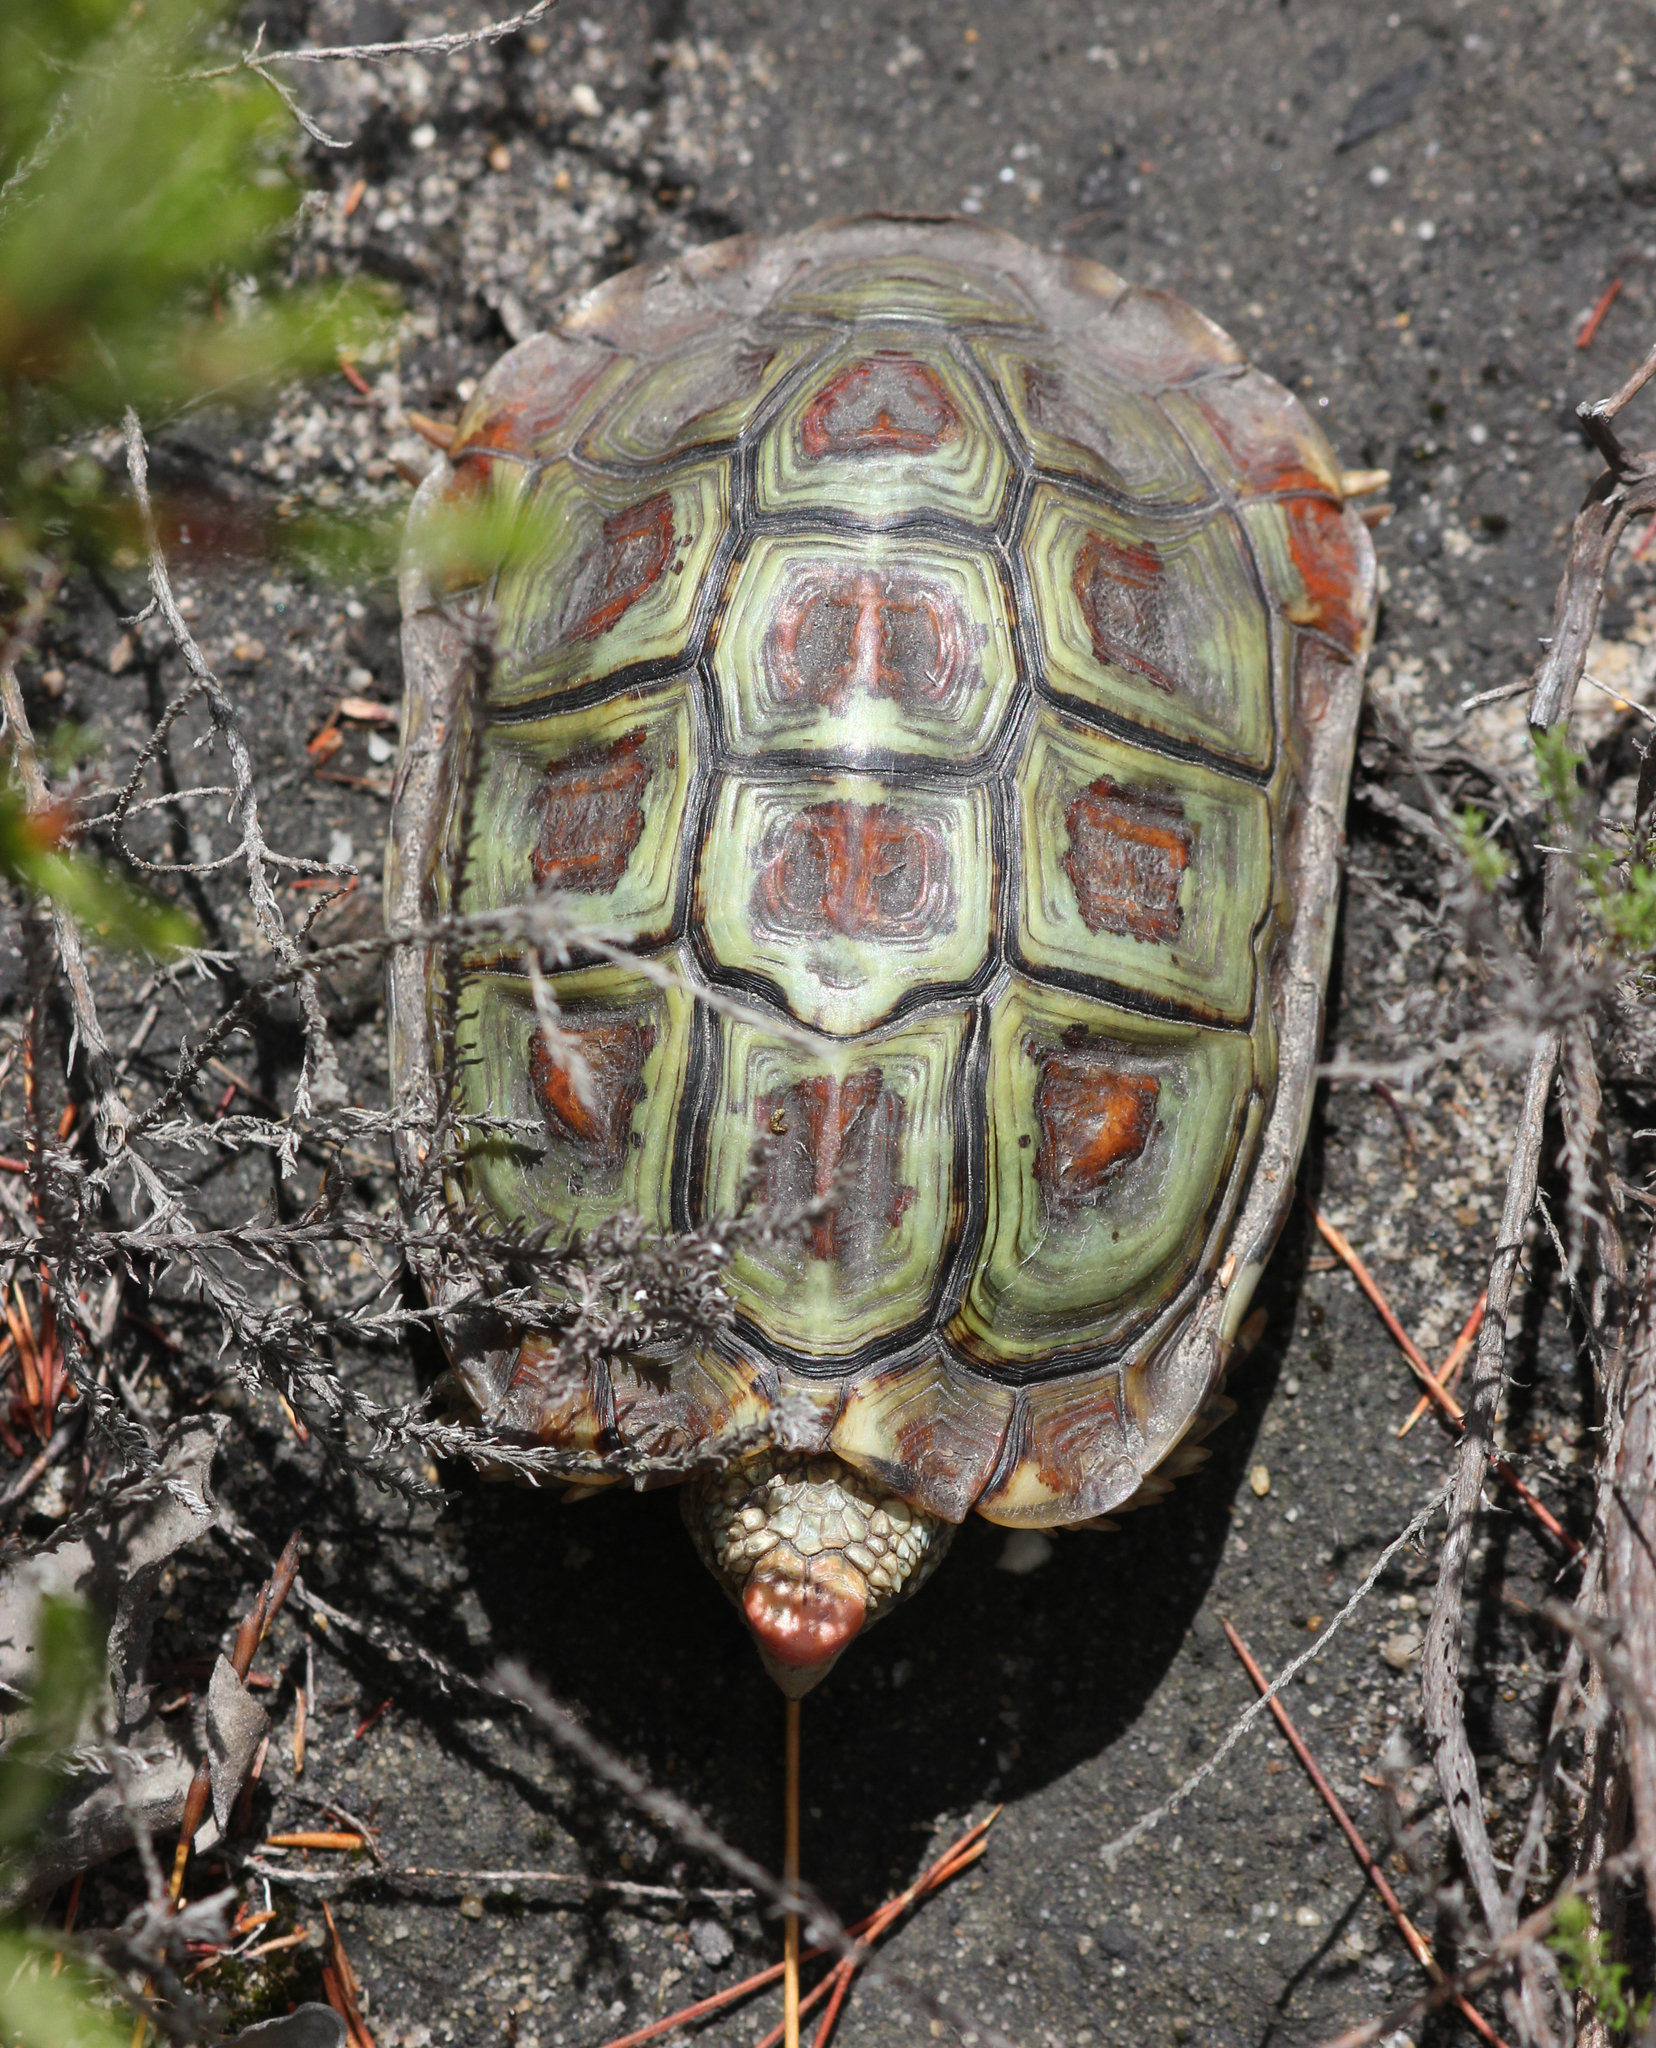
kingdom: Animalia
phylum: Chordata
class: Testudines
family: Testudinidae
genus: Homopus
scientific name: Homopus areolatus
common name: Parrot-beaked tortoise
